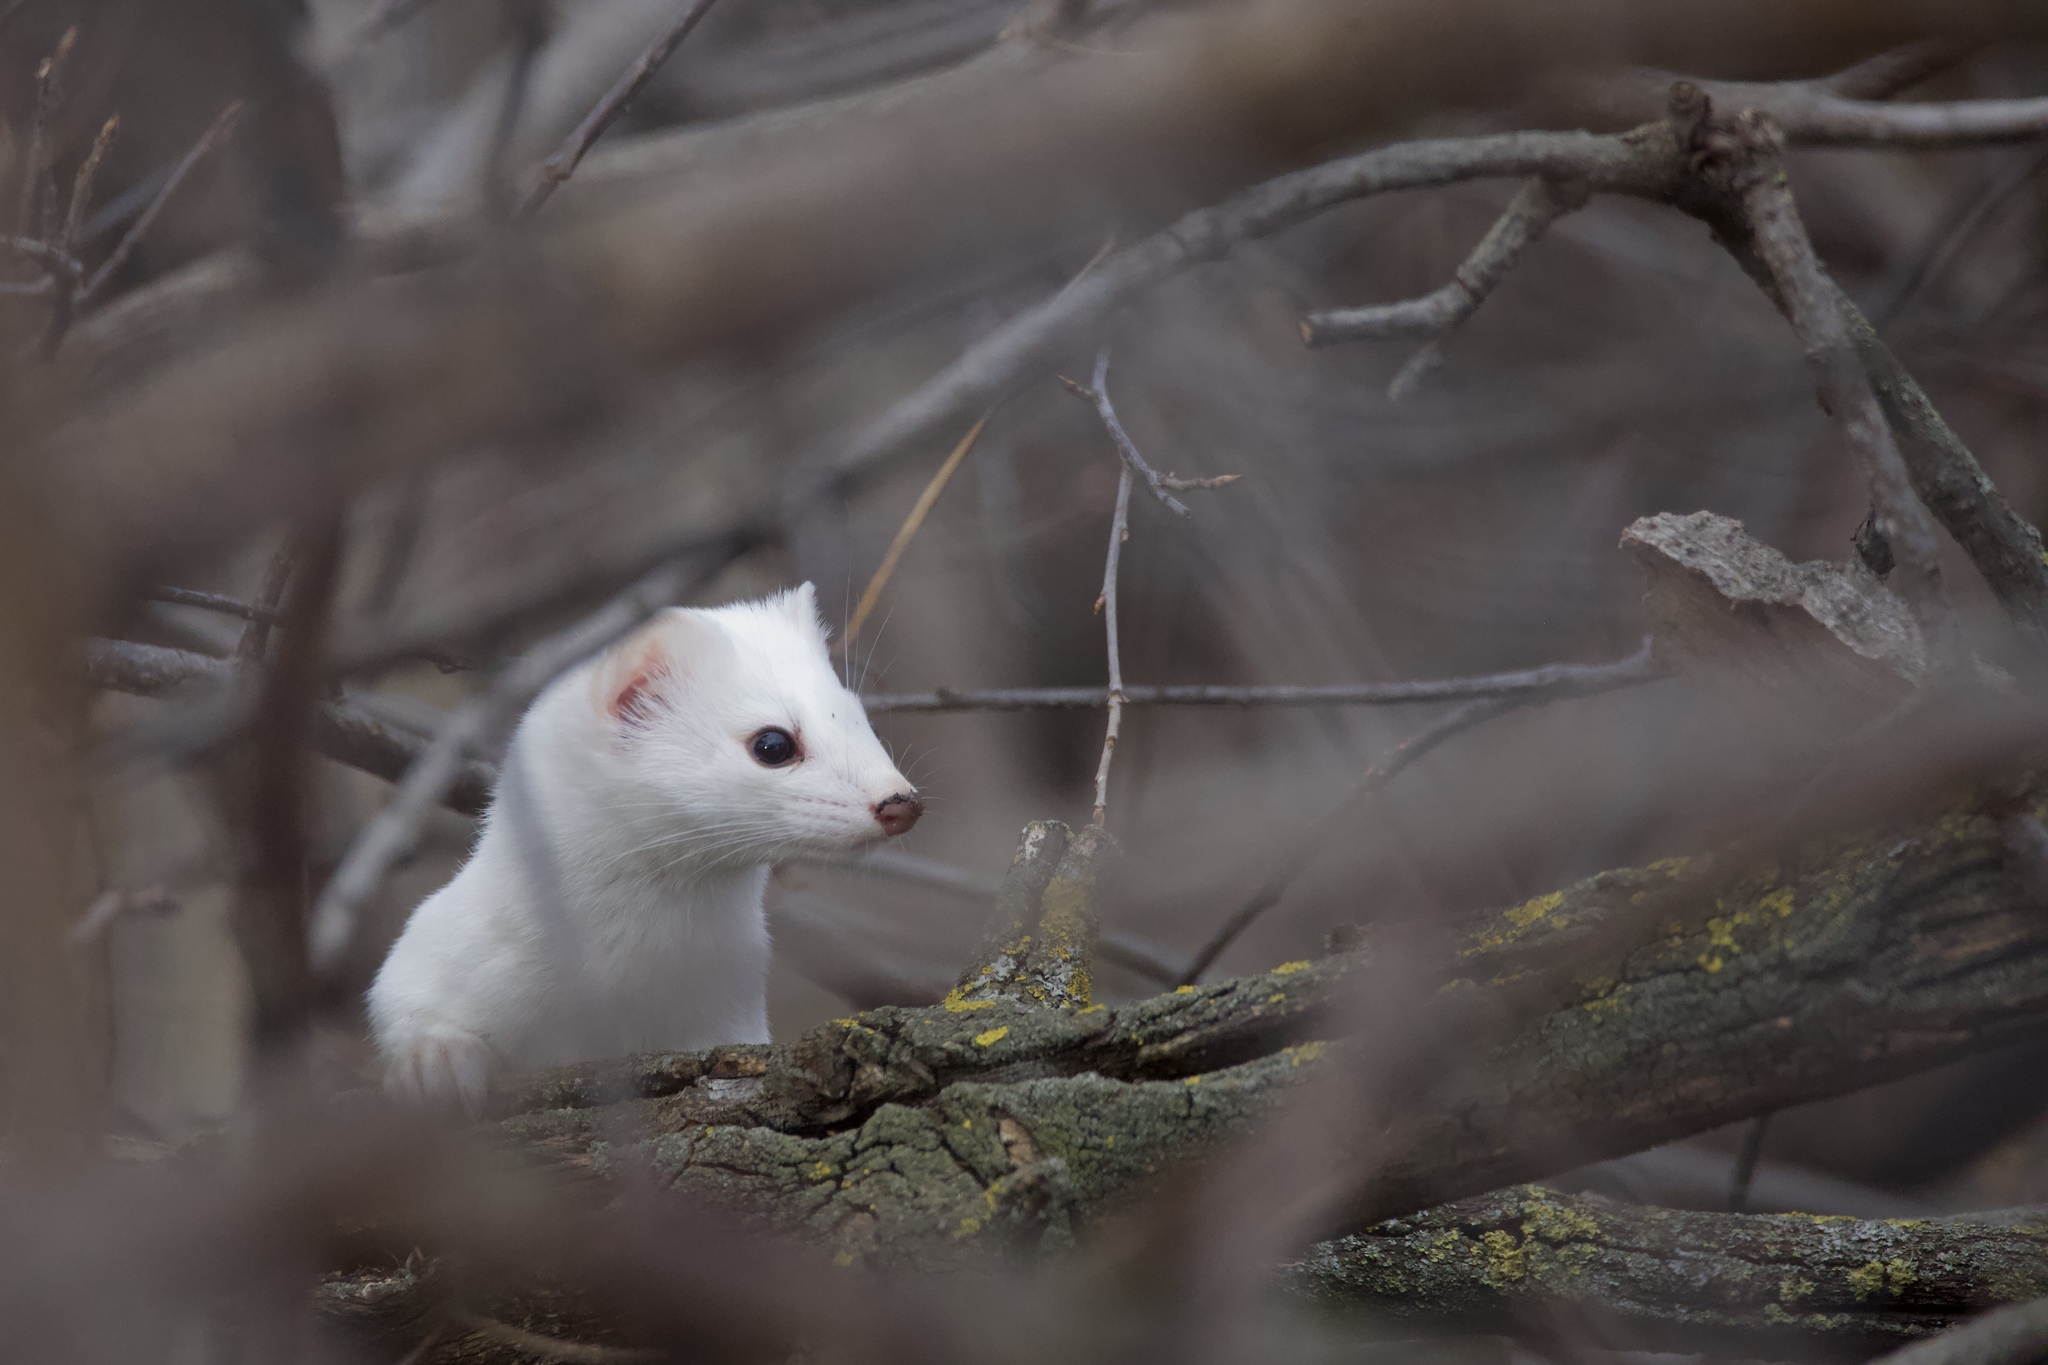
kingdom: Animalia
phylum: Chordata
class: Mammalia
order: Carnivora
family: Mustelidae
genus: Mustela
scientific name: Mustela
